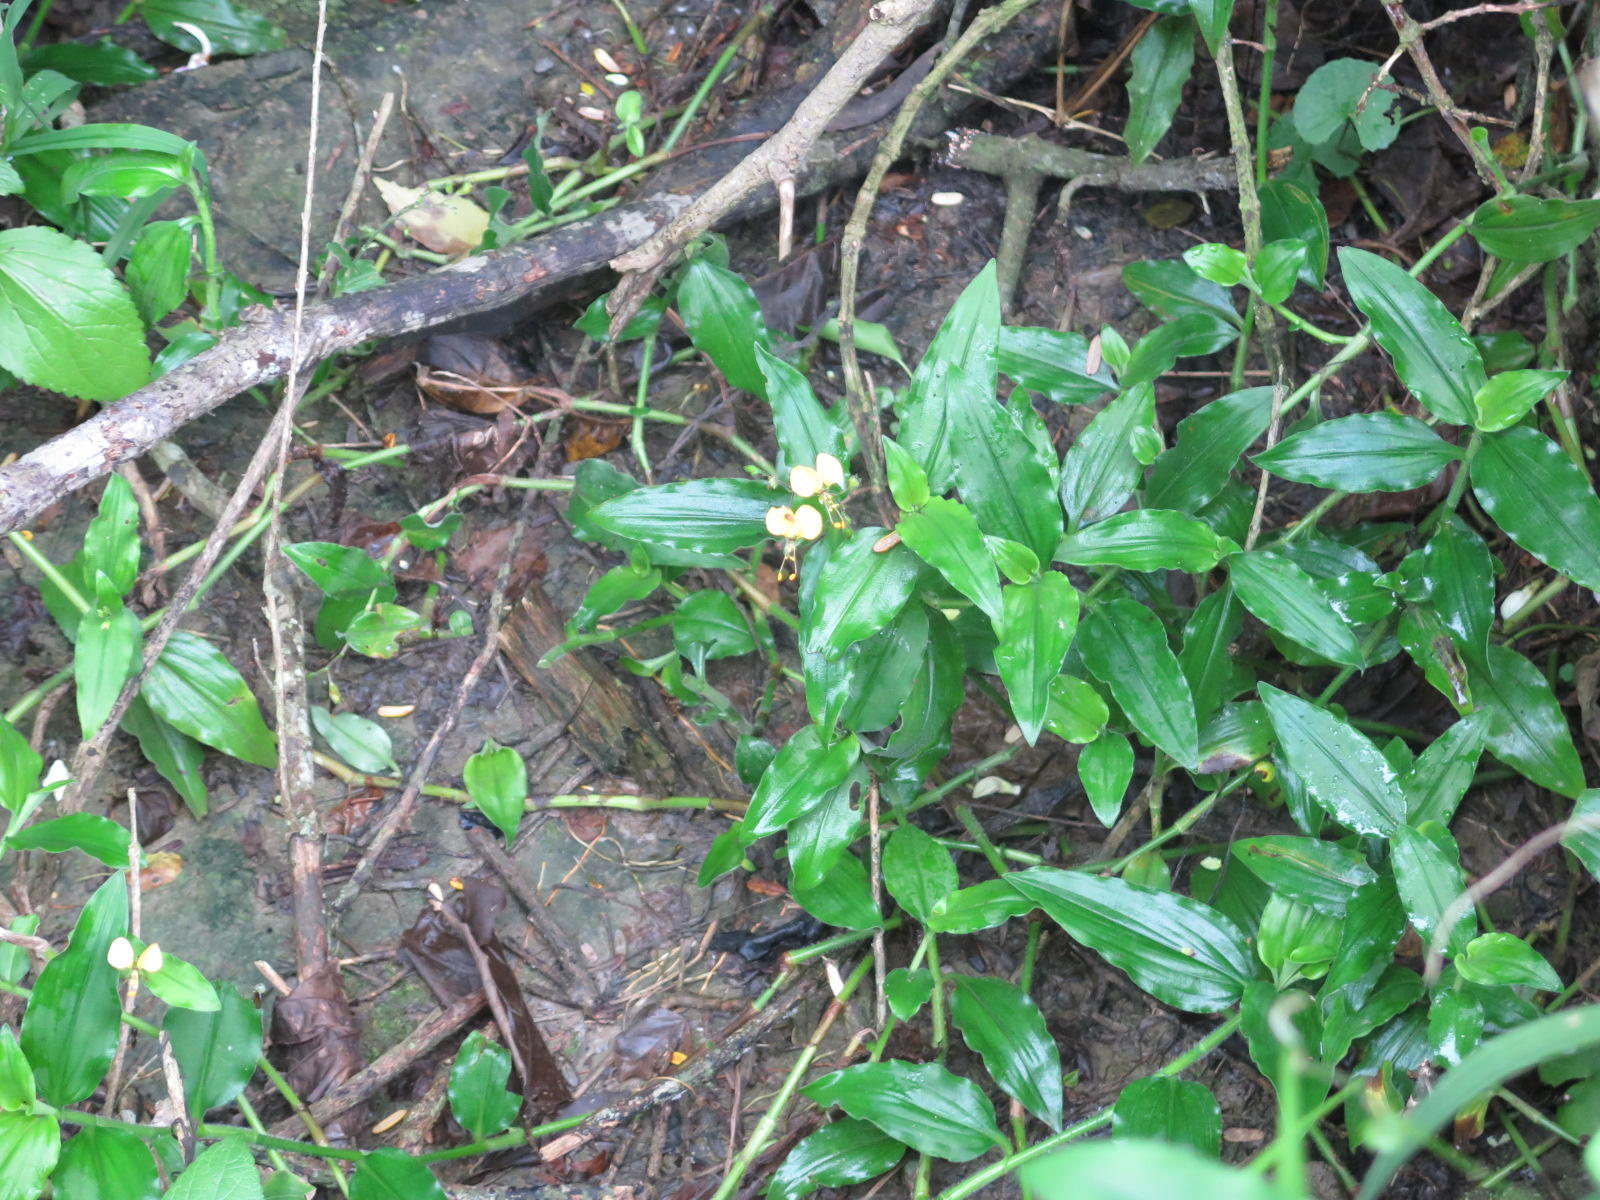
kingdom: Plantae
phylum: Tracheophyta
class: Liliopsida
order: Commelinales
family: Commelinaceae
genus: Aneilema
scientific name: Aneilema aequinoctiale
